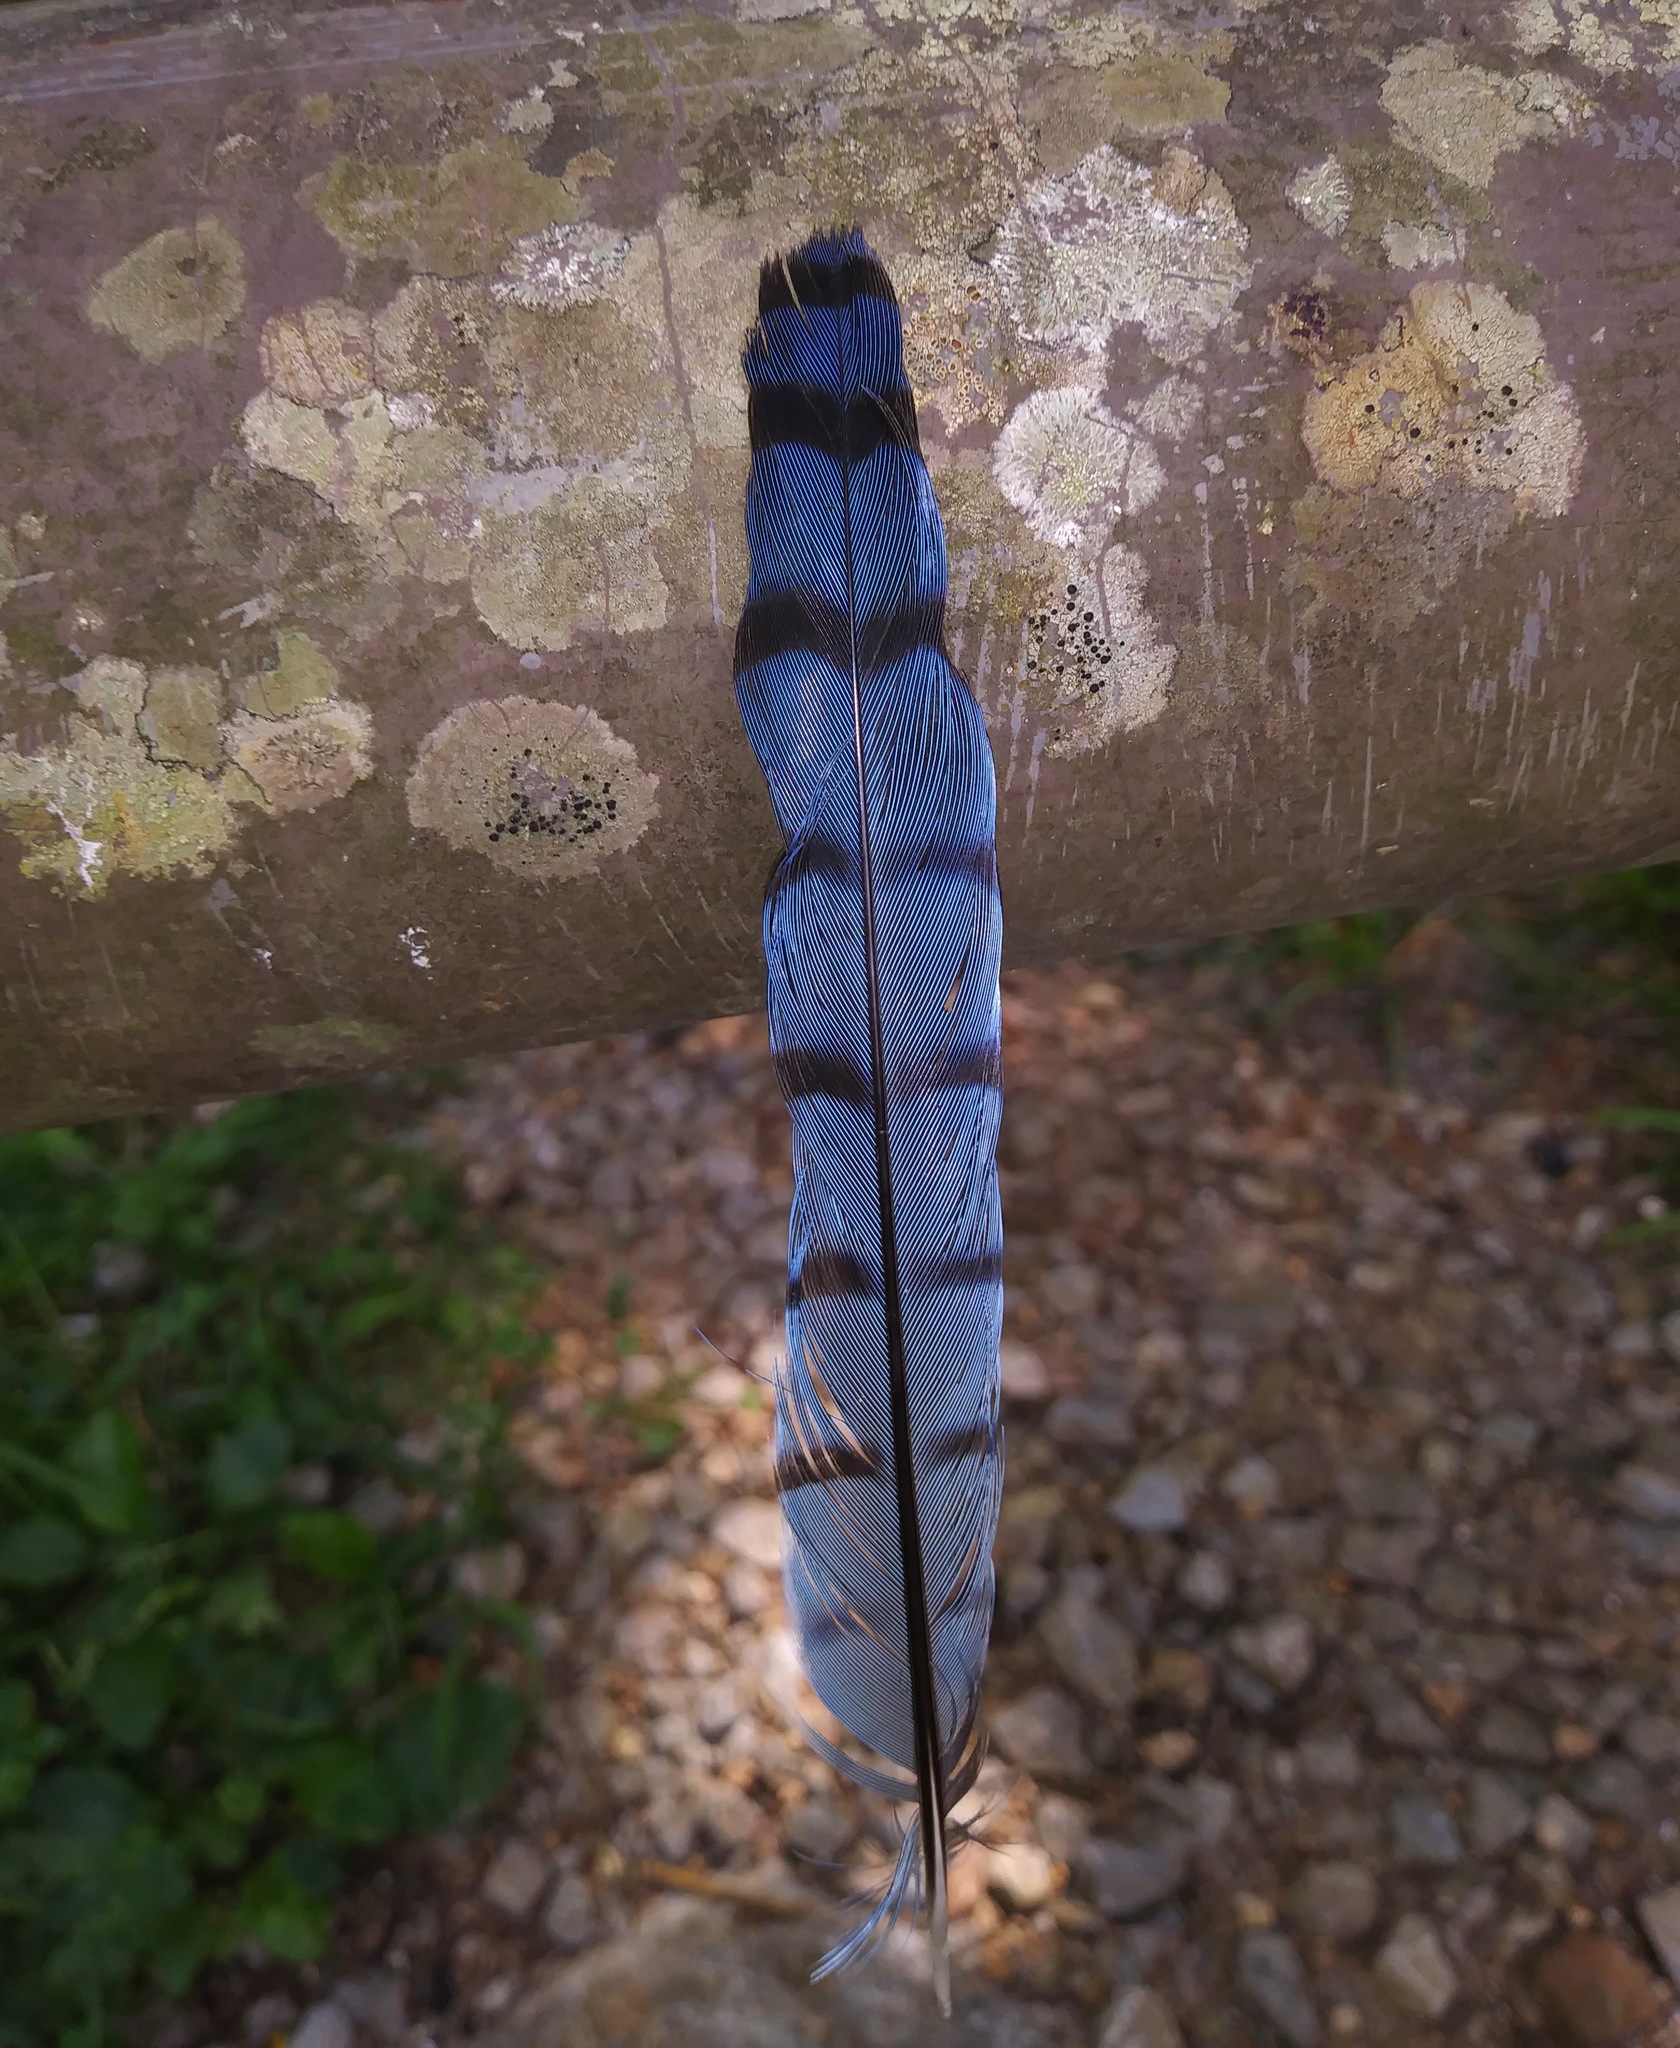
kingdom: Animalia
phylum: Chordata
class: Aves
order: Passeriformes
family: Corvidae
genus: Cyanocitta
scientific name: Cyanocitta cristata
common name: Blue jay
